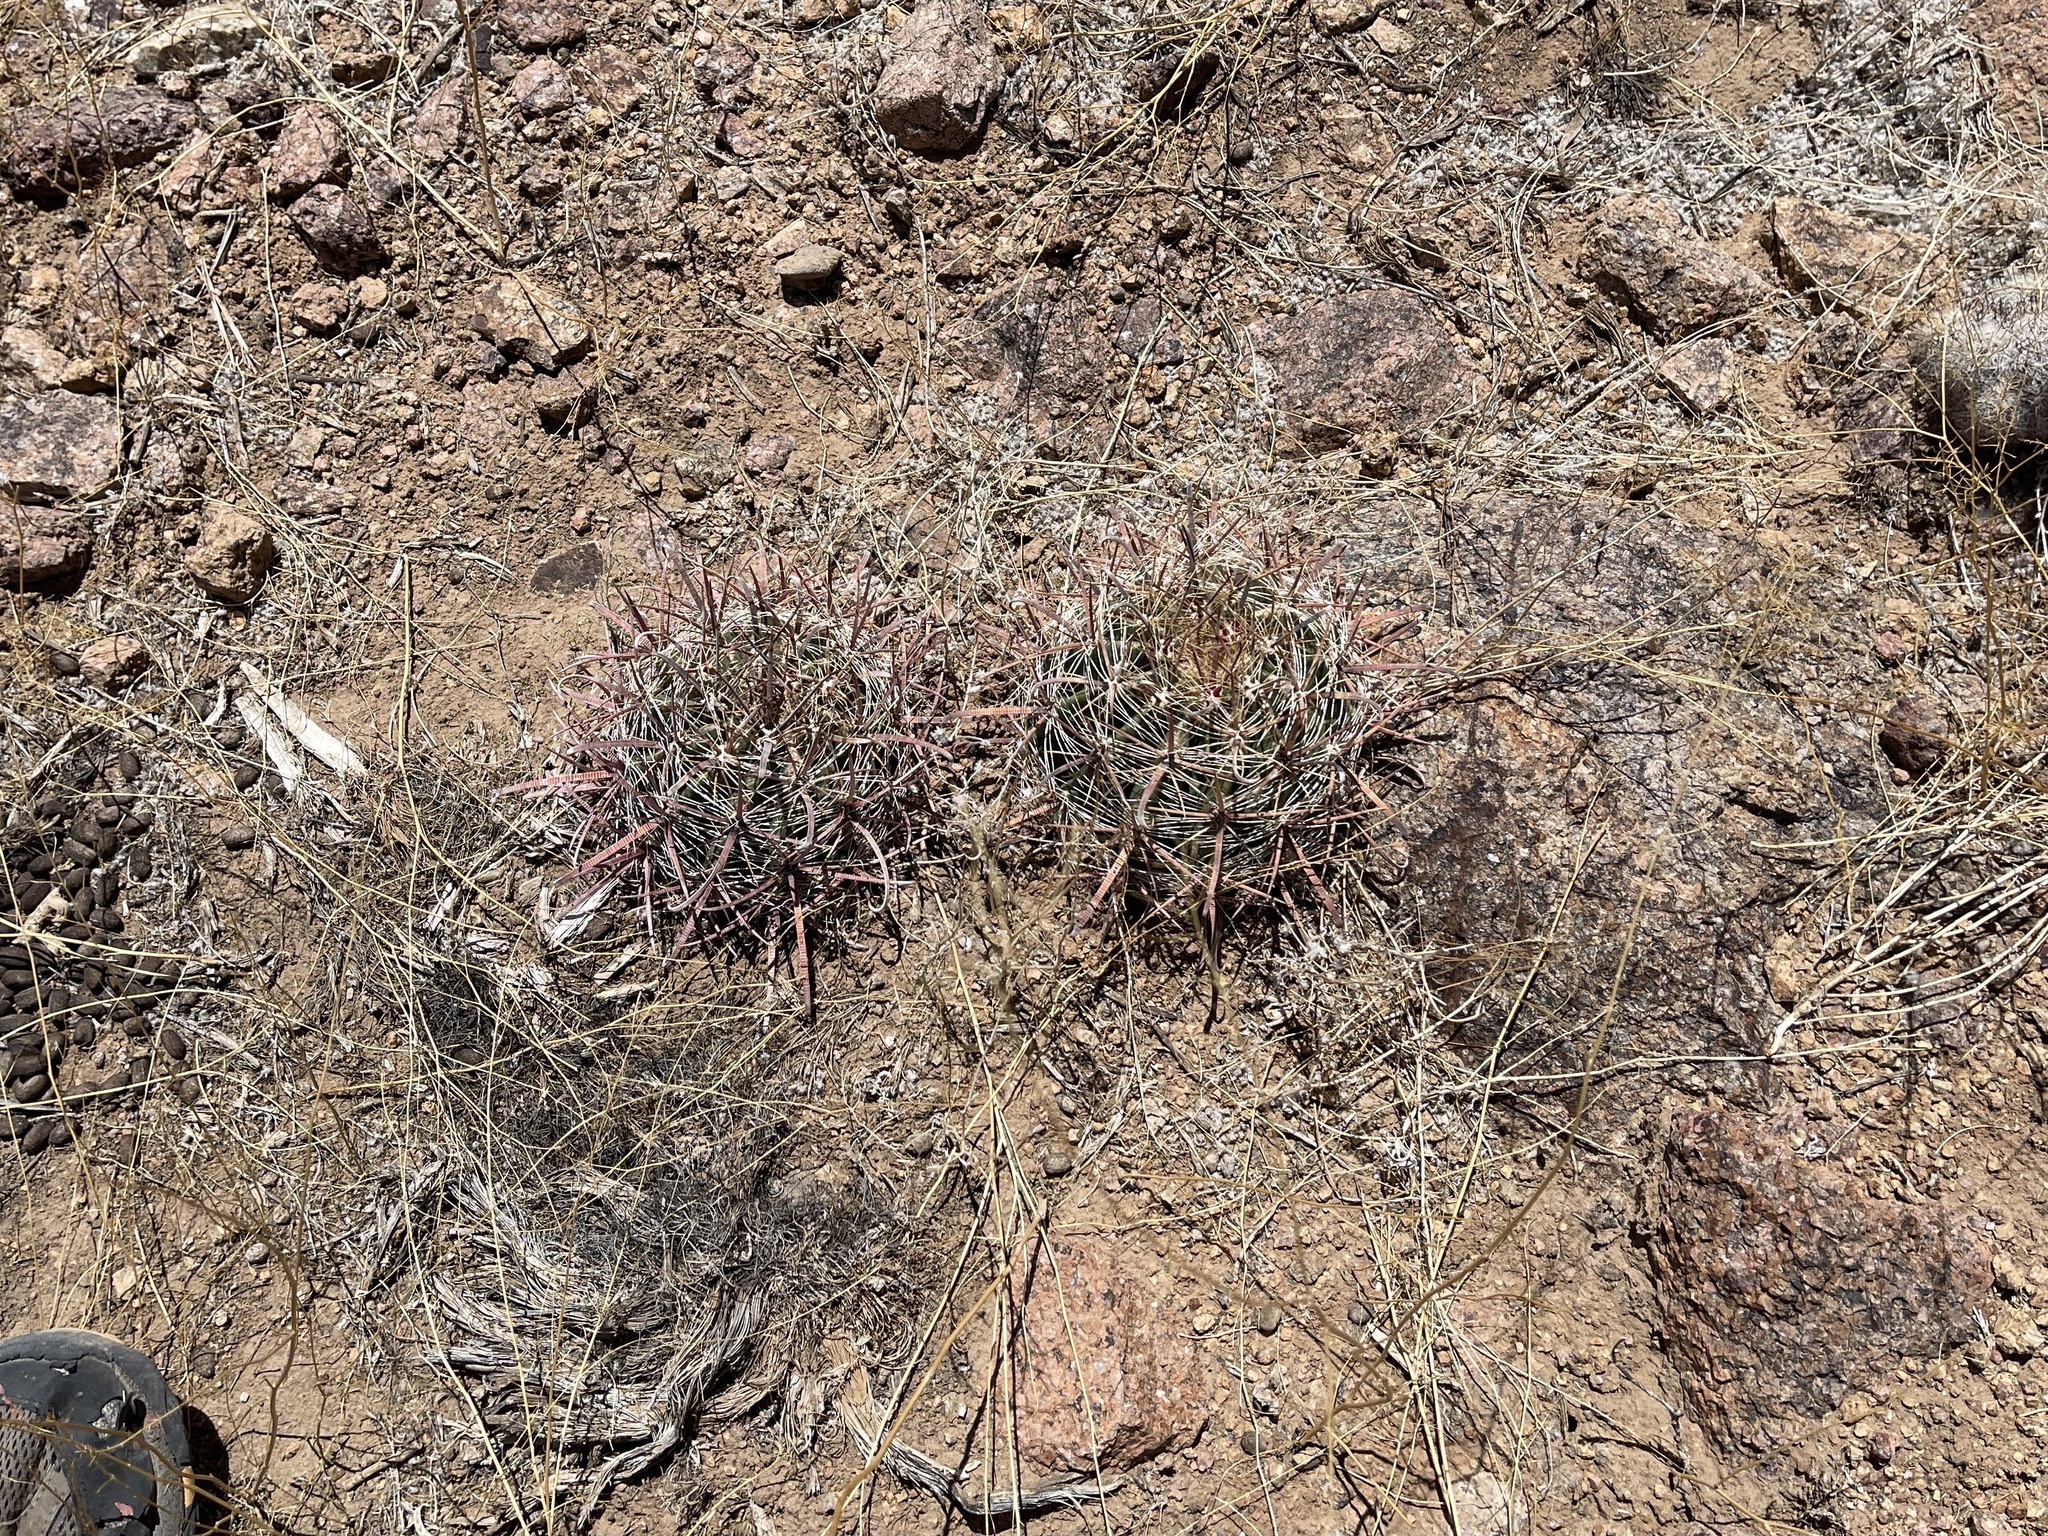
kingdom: Plantae
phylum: Tracheophyta
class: Magnoliopsida
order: Caryophyllales
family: Cactaceae
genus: Ferocactus
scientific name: Ferocactus wislizeni
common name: Candy barrel cactus
